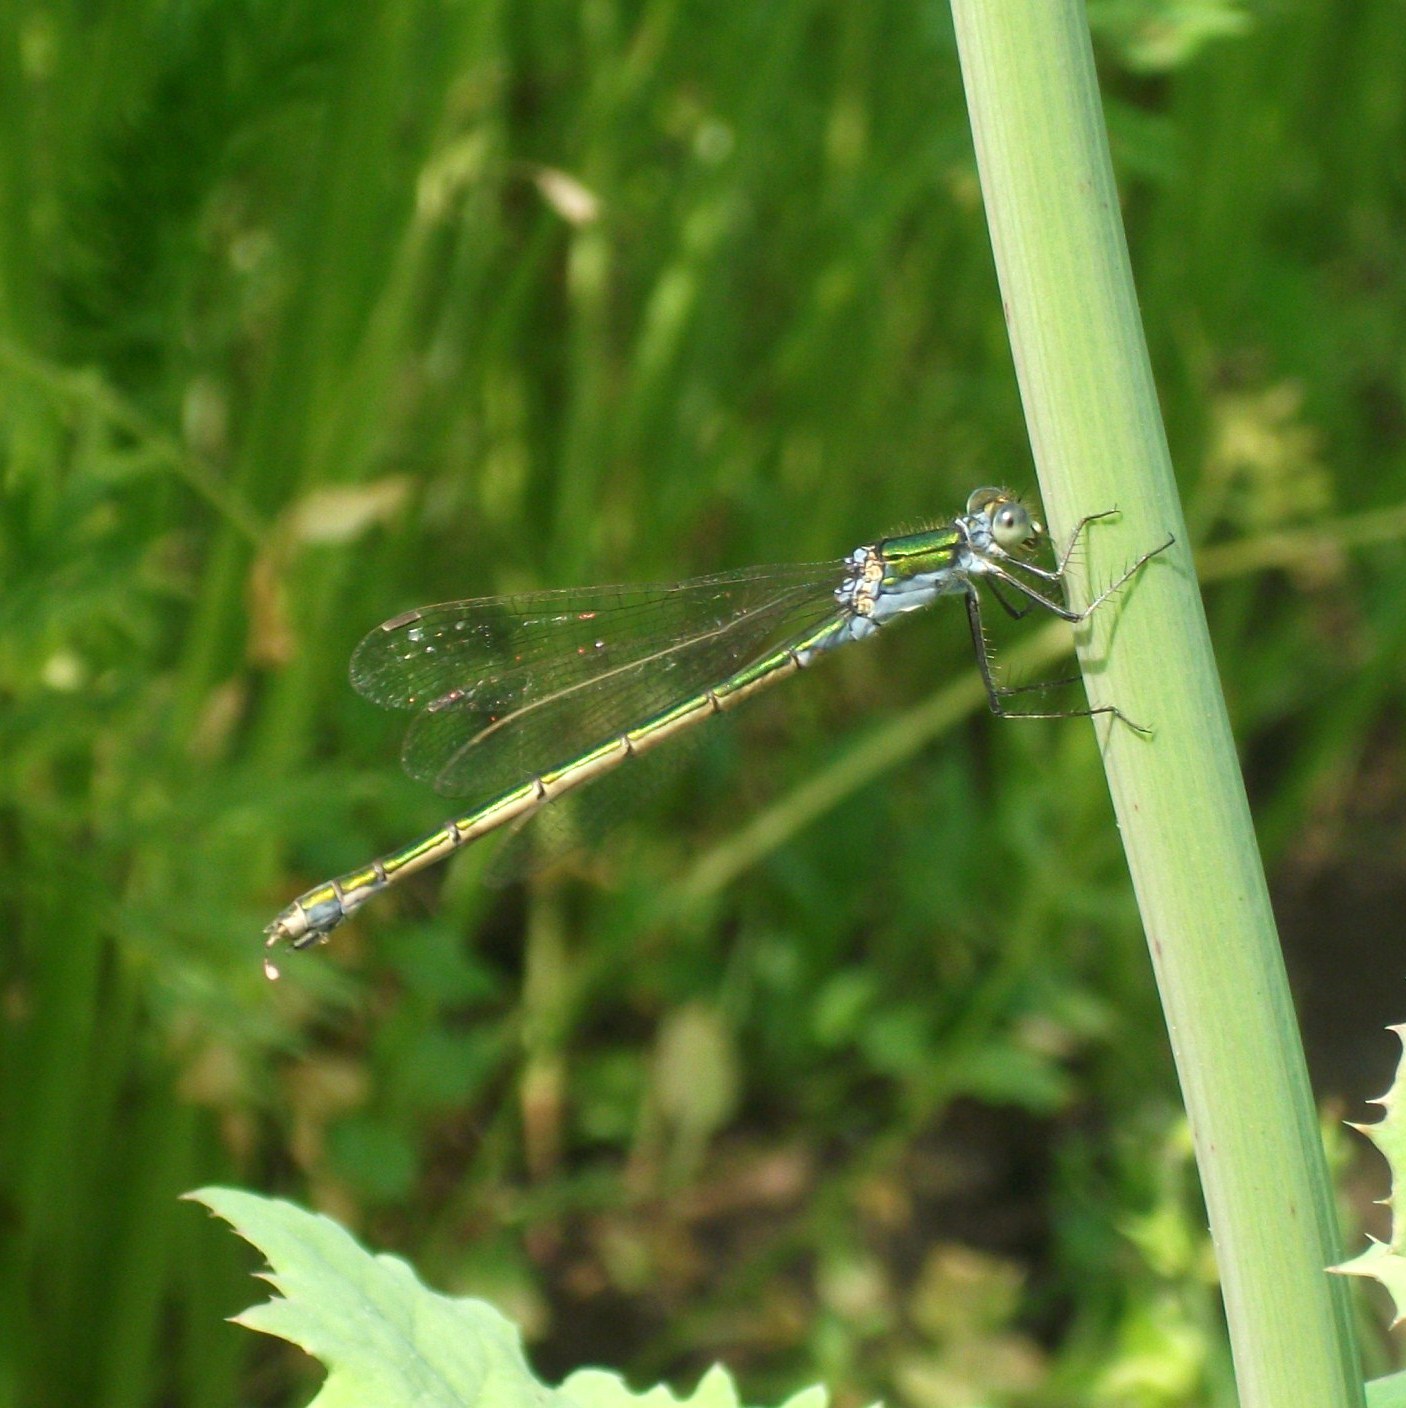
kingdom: Animalia
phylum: Arthropoda
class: Insecta
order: Odonata
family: Lestidae
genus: Lestes
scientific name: Lestes sponsa
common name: Common spreadwing
